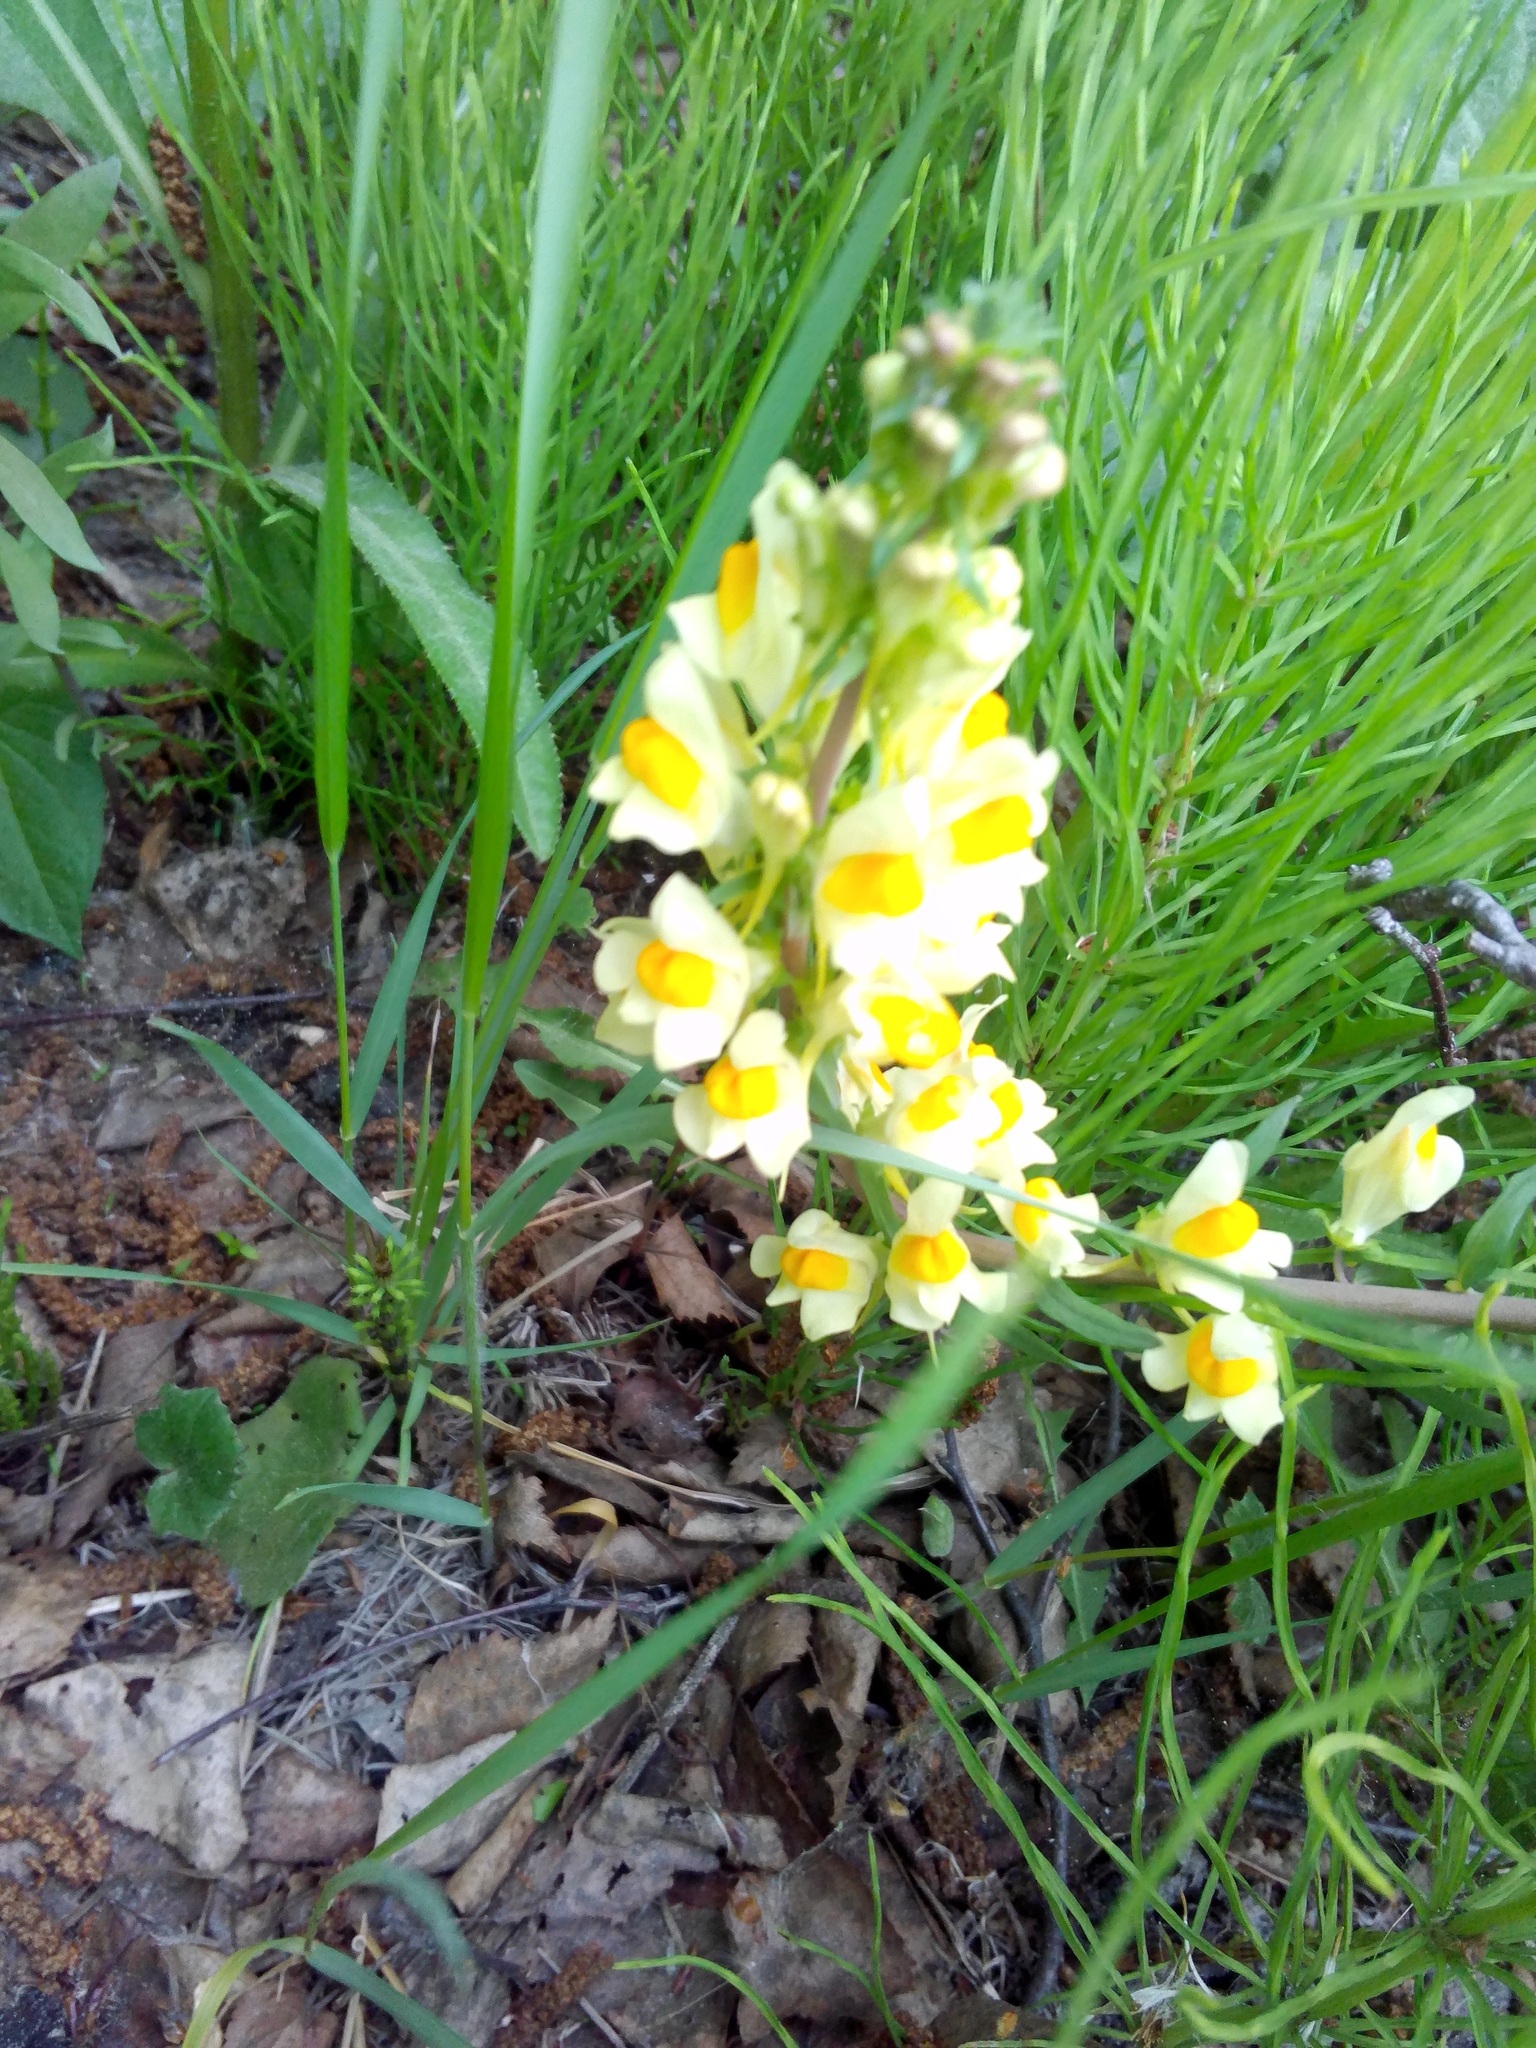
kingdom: Plantae
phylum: Tracheophyta
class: Magnoliopsida
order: Lamiales
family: Plantaginaceae
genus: Linaria
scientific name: Linaria vulgaris
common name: Butter and eggs
